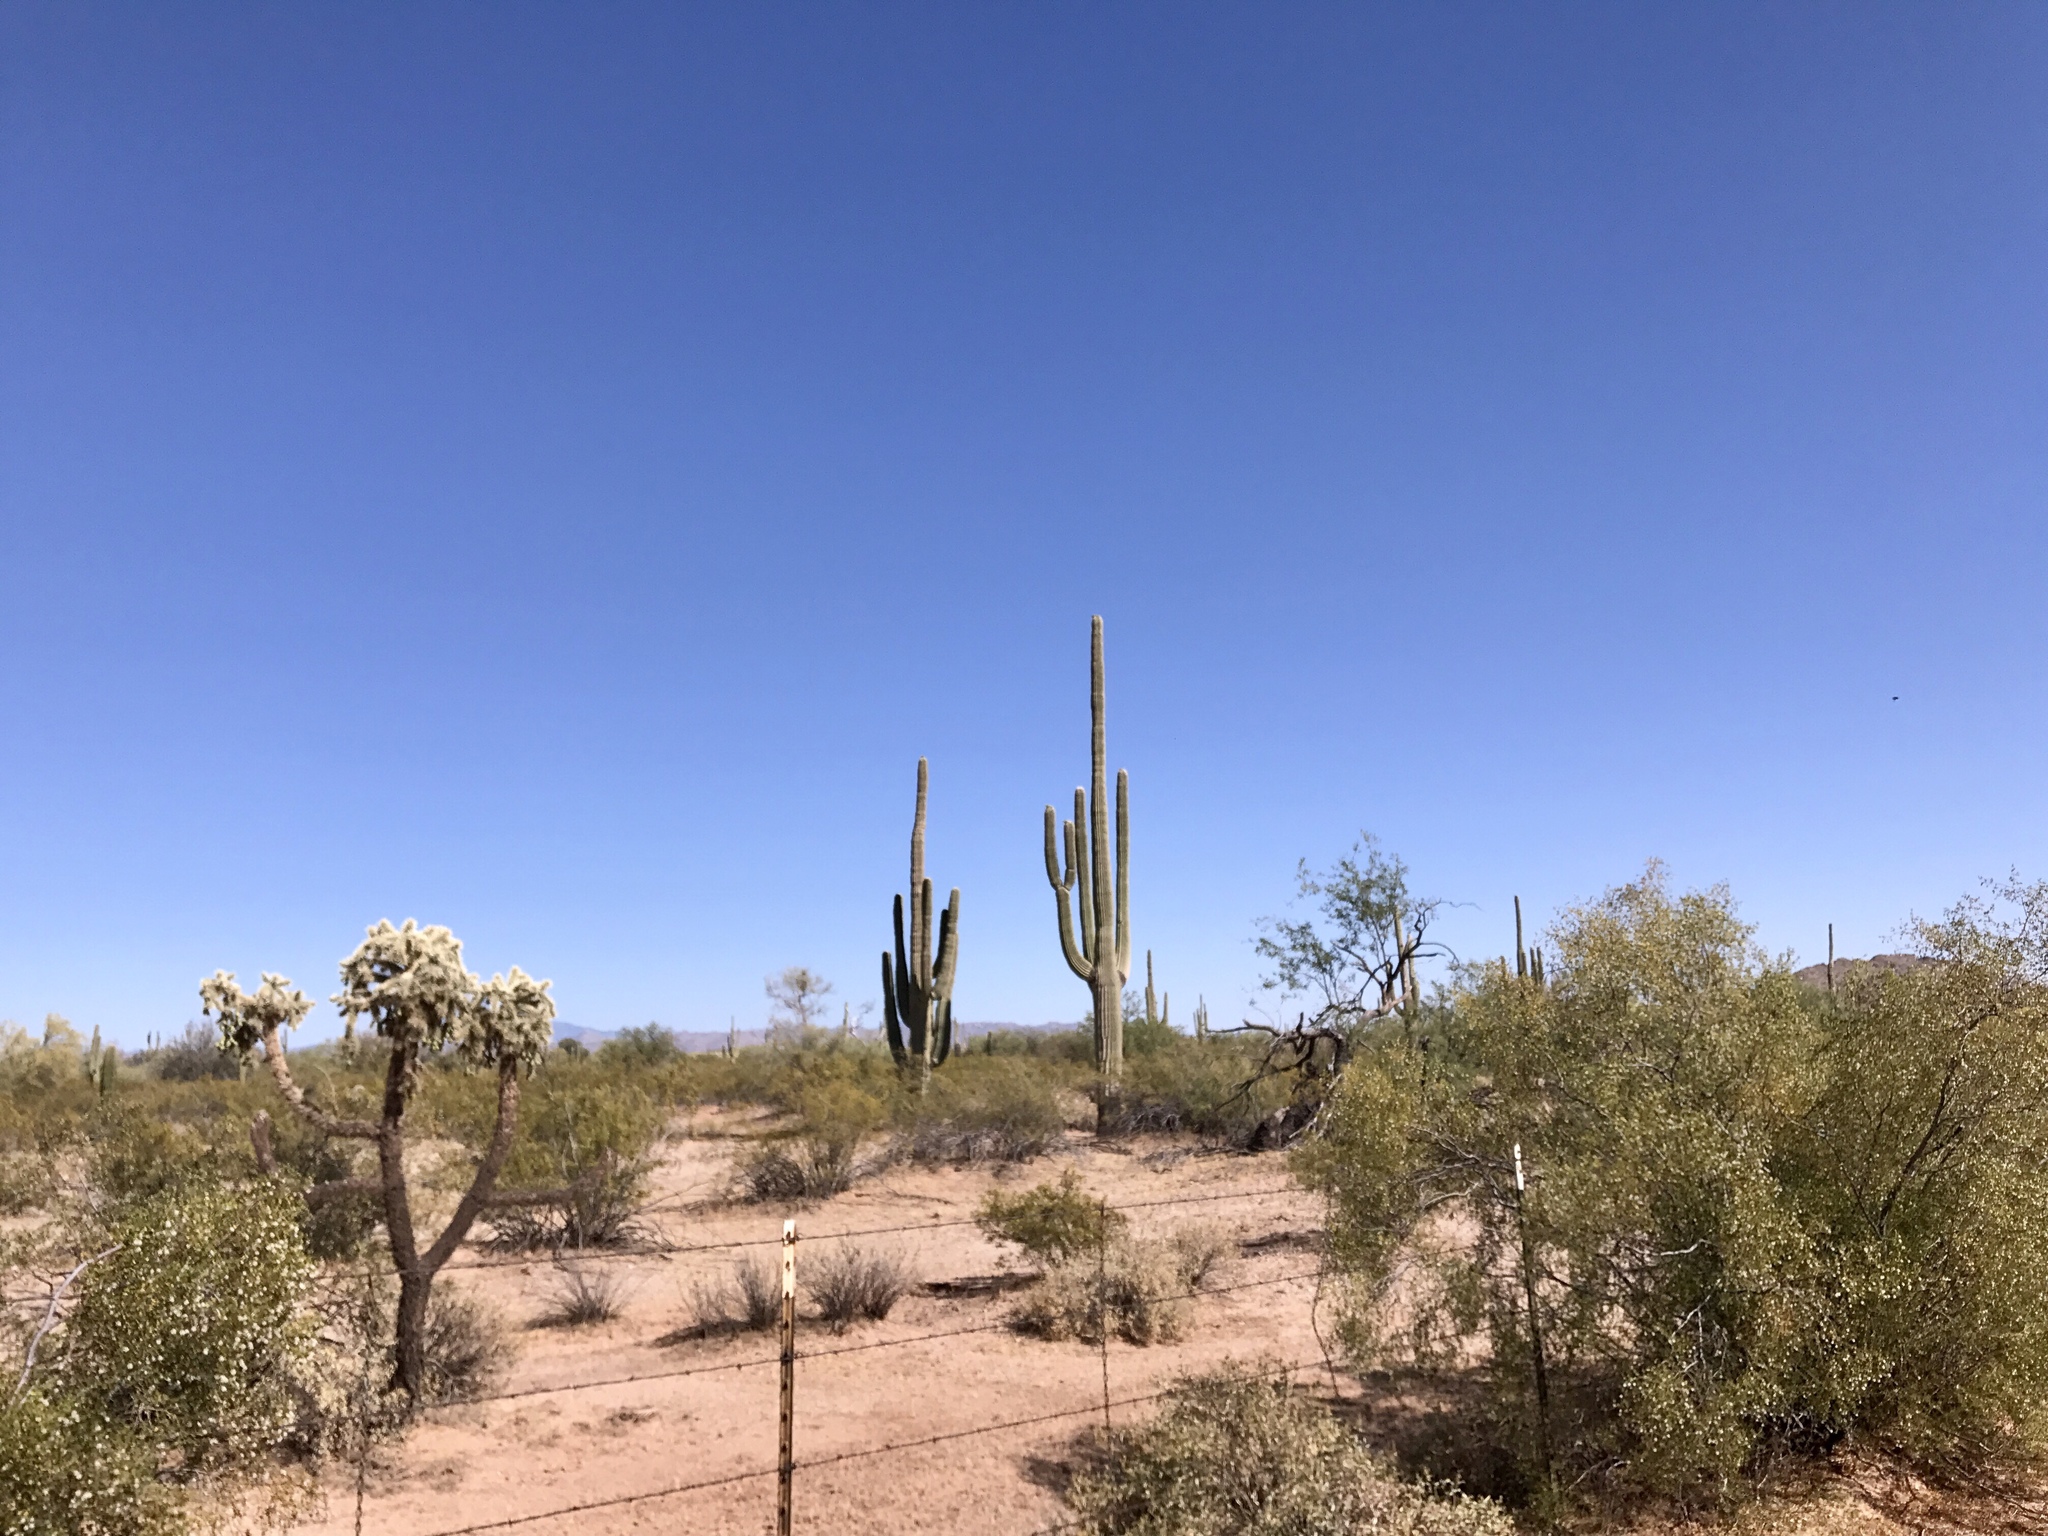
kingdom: Plantae
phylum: Tracheophyta
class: Magnoliopsida
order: Caryophyllales
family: Cactaceae
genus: Carnegiea
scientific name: Carnegiea gigantea
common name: Saguaro
